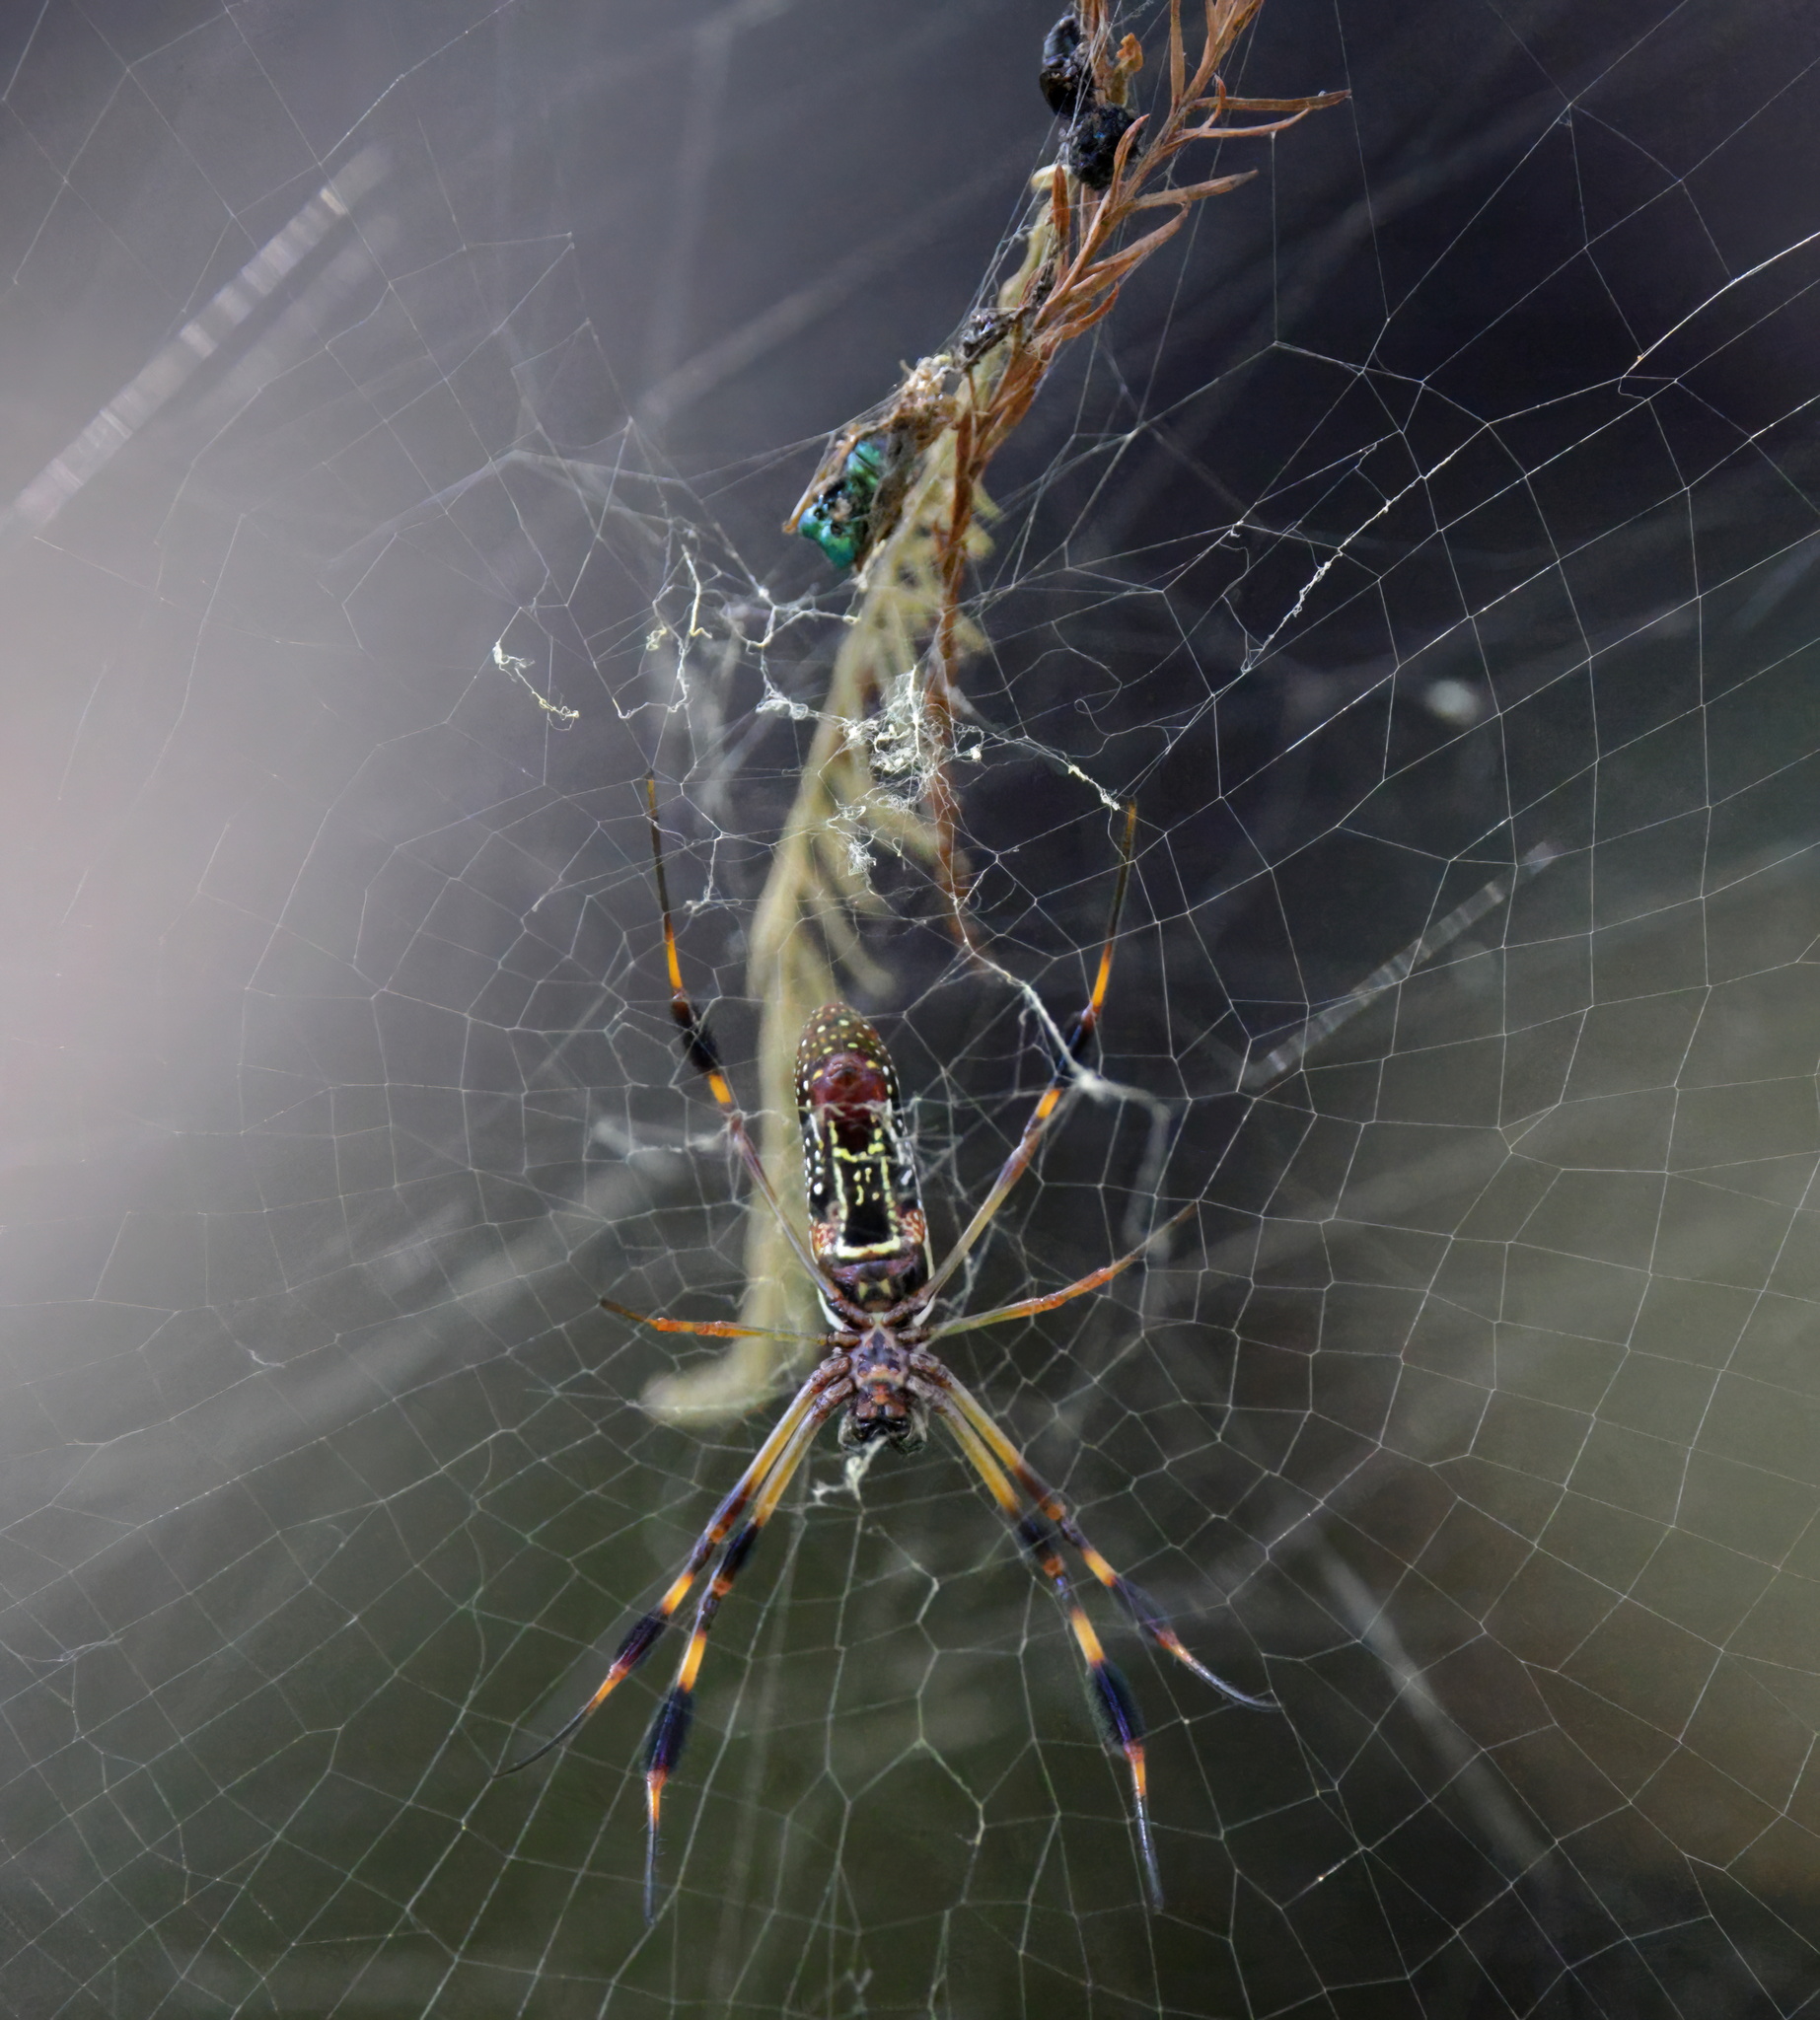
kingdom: Animalia
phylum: Arthropoda
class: Arachnida
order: Araneae
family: Araneidae
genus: Trichonephila
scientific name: Trichonephila clavipes
